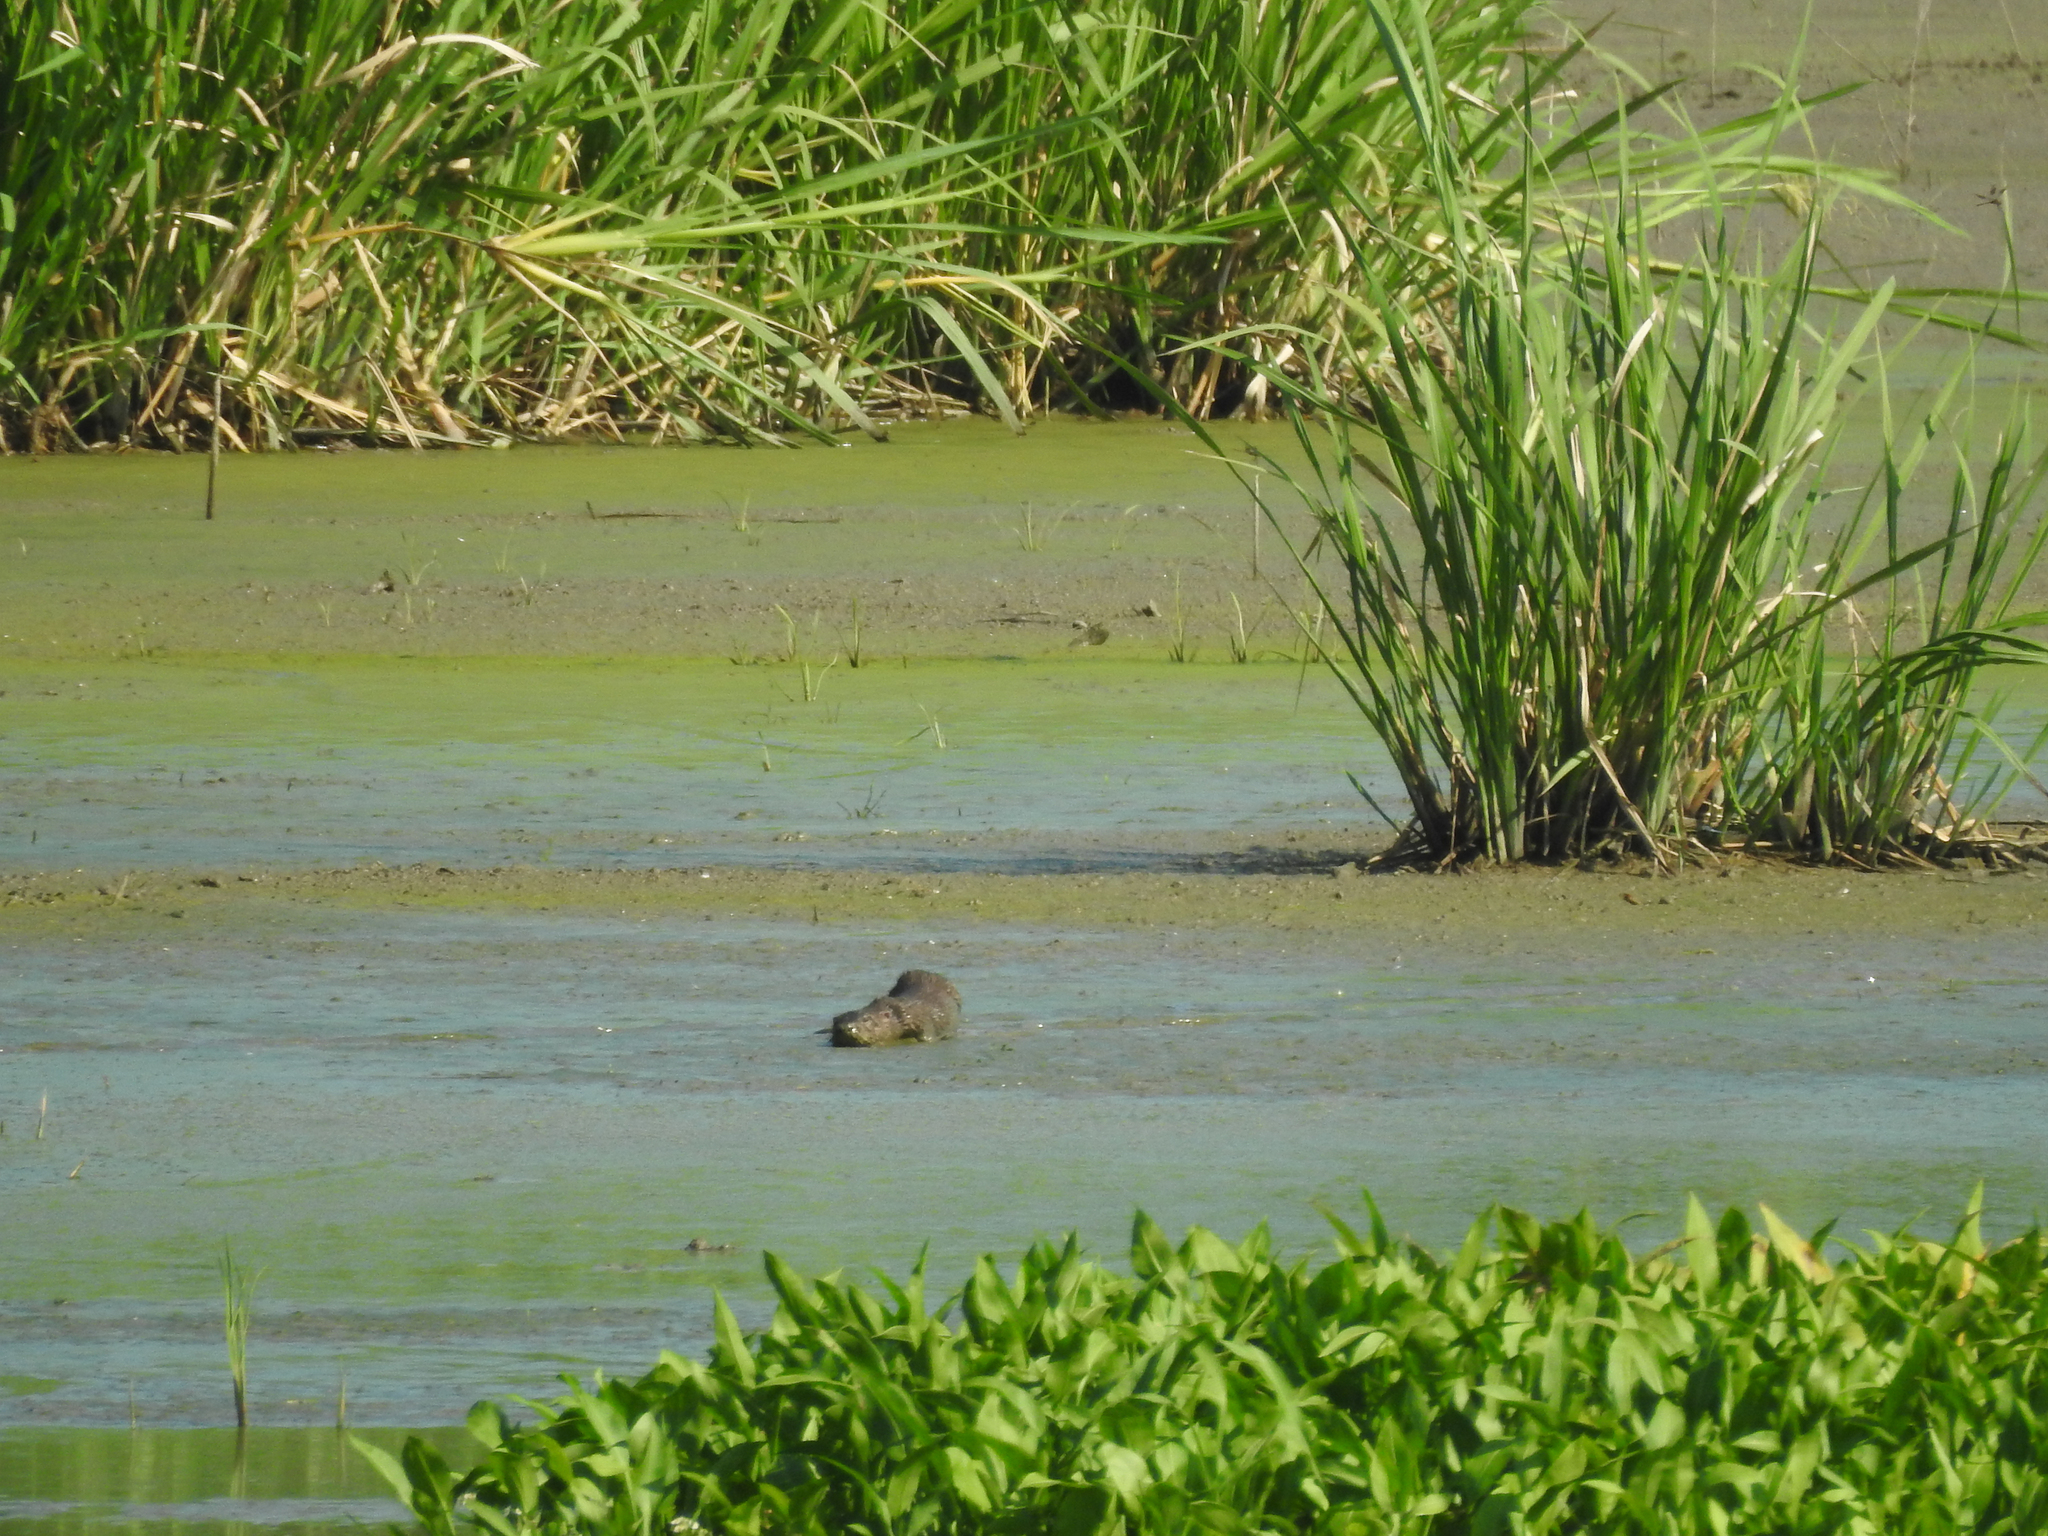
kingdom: Animalia
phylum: Chordata
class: Mammalia
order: Carnivora
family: Mustelidae
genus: Lontra
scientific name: Lontra canadensis
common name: North american river otter
